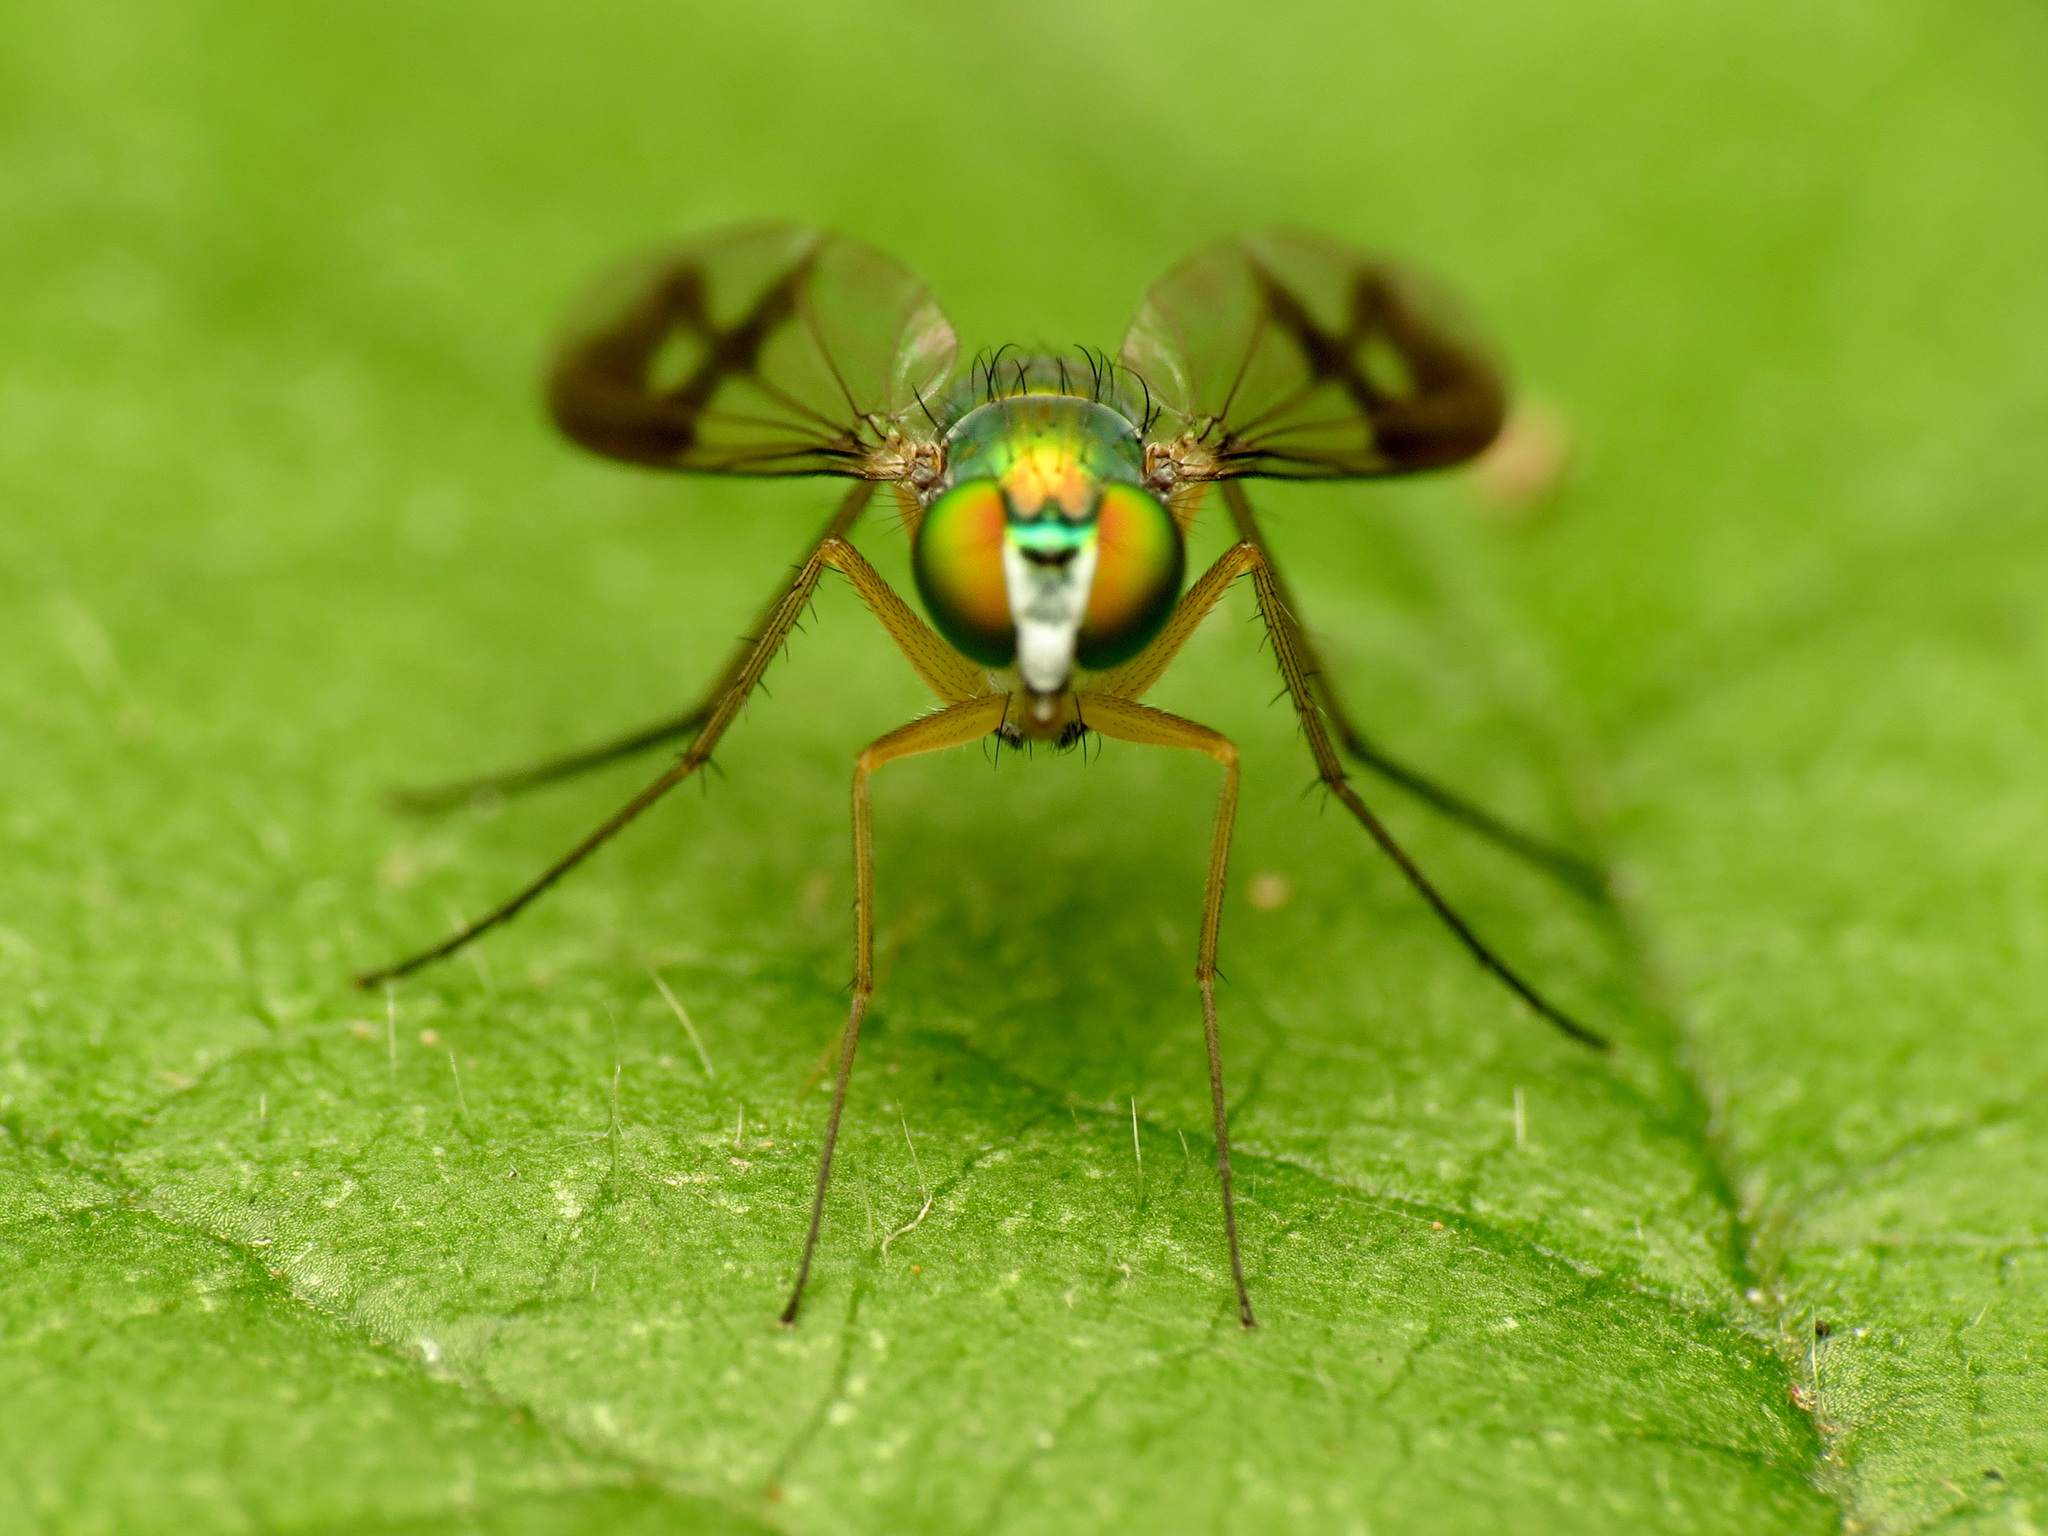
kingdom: Animalia
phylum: Arthropoda
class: Insecta
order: Diptera
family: Dolichopodidae
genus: Condylostylus
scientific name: Condylostylus
